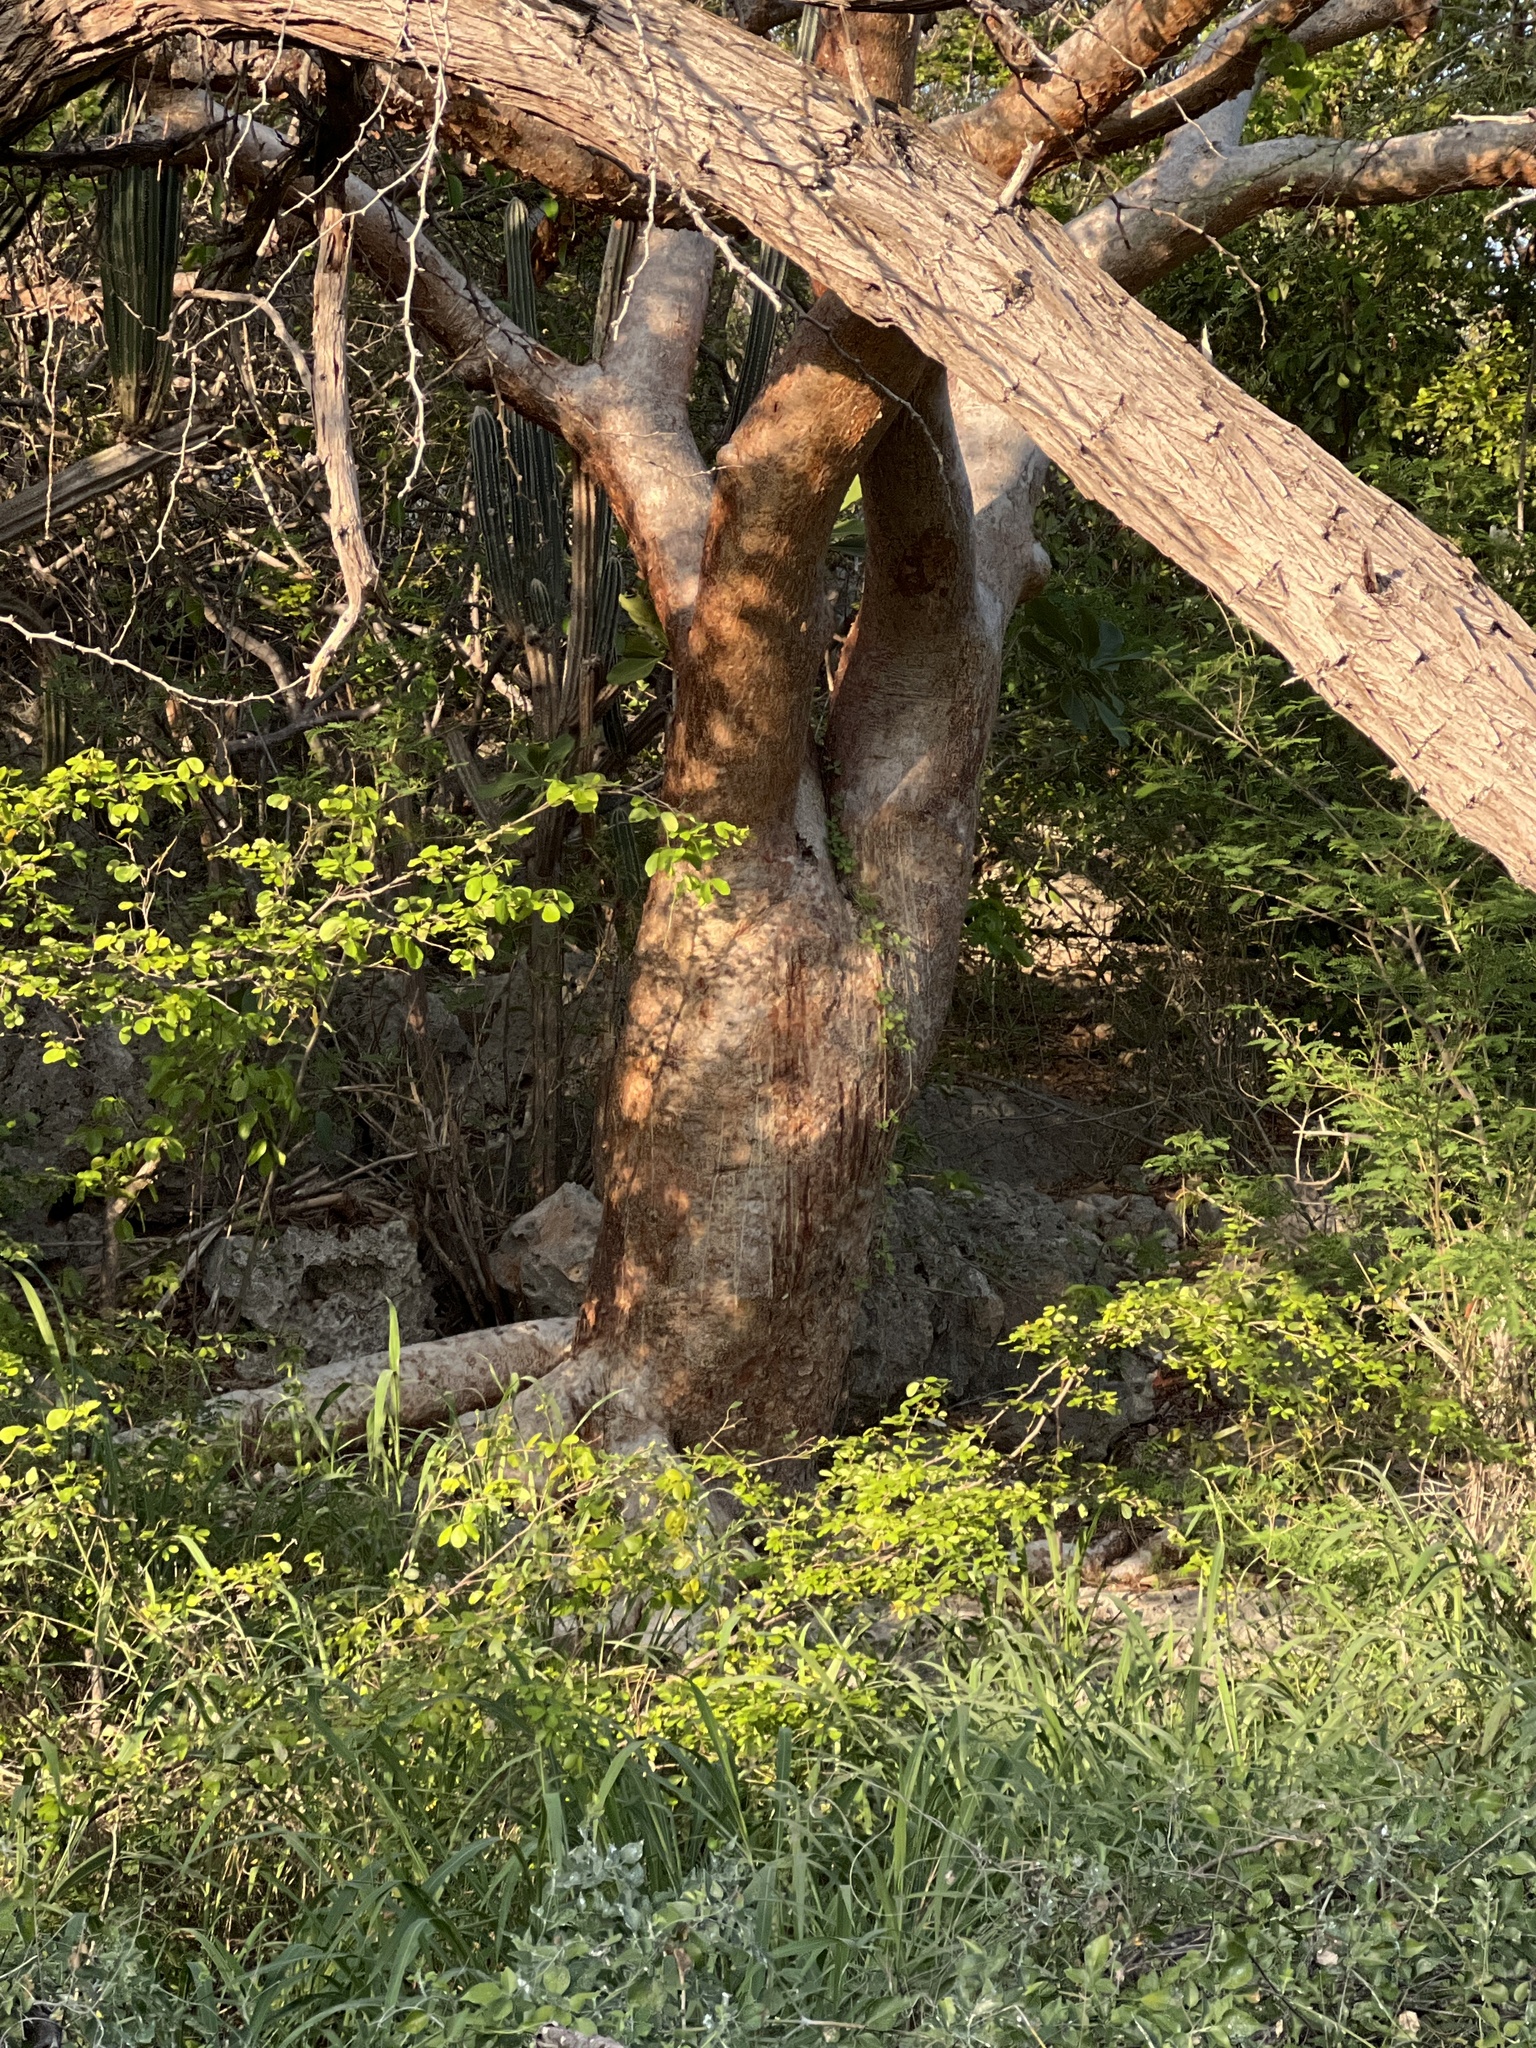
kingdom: Plantae
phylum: Tracheophyta
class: Magnoliopsida
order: Sapindales
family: Burseraceae
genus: Bursera
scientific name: Bursera simaruba
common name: Turpentine tree
